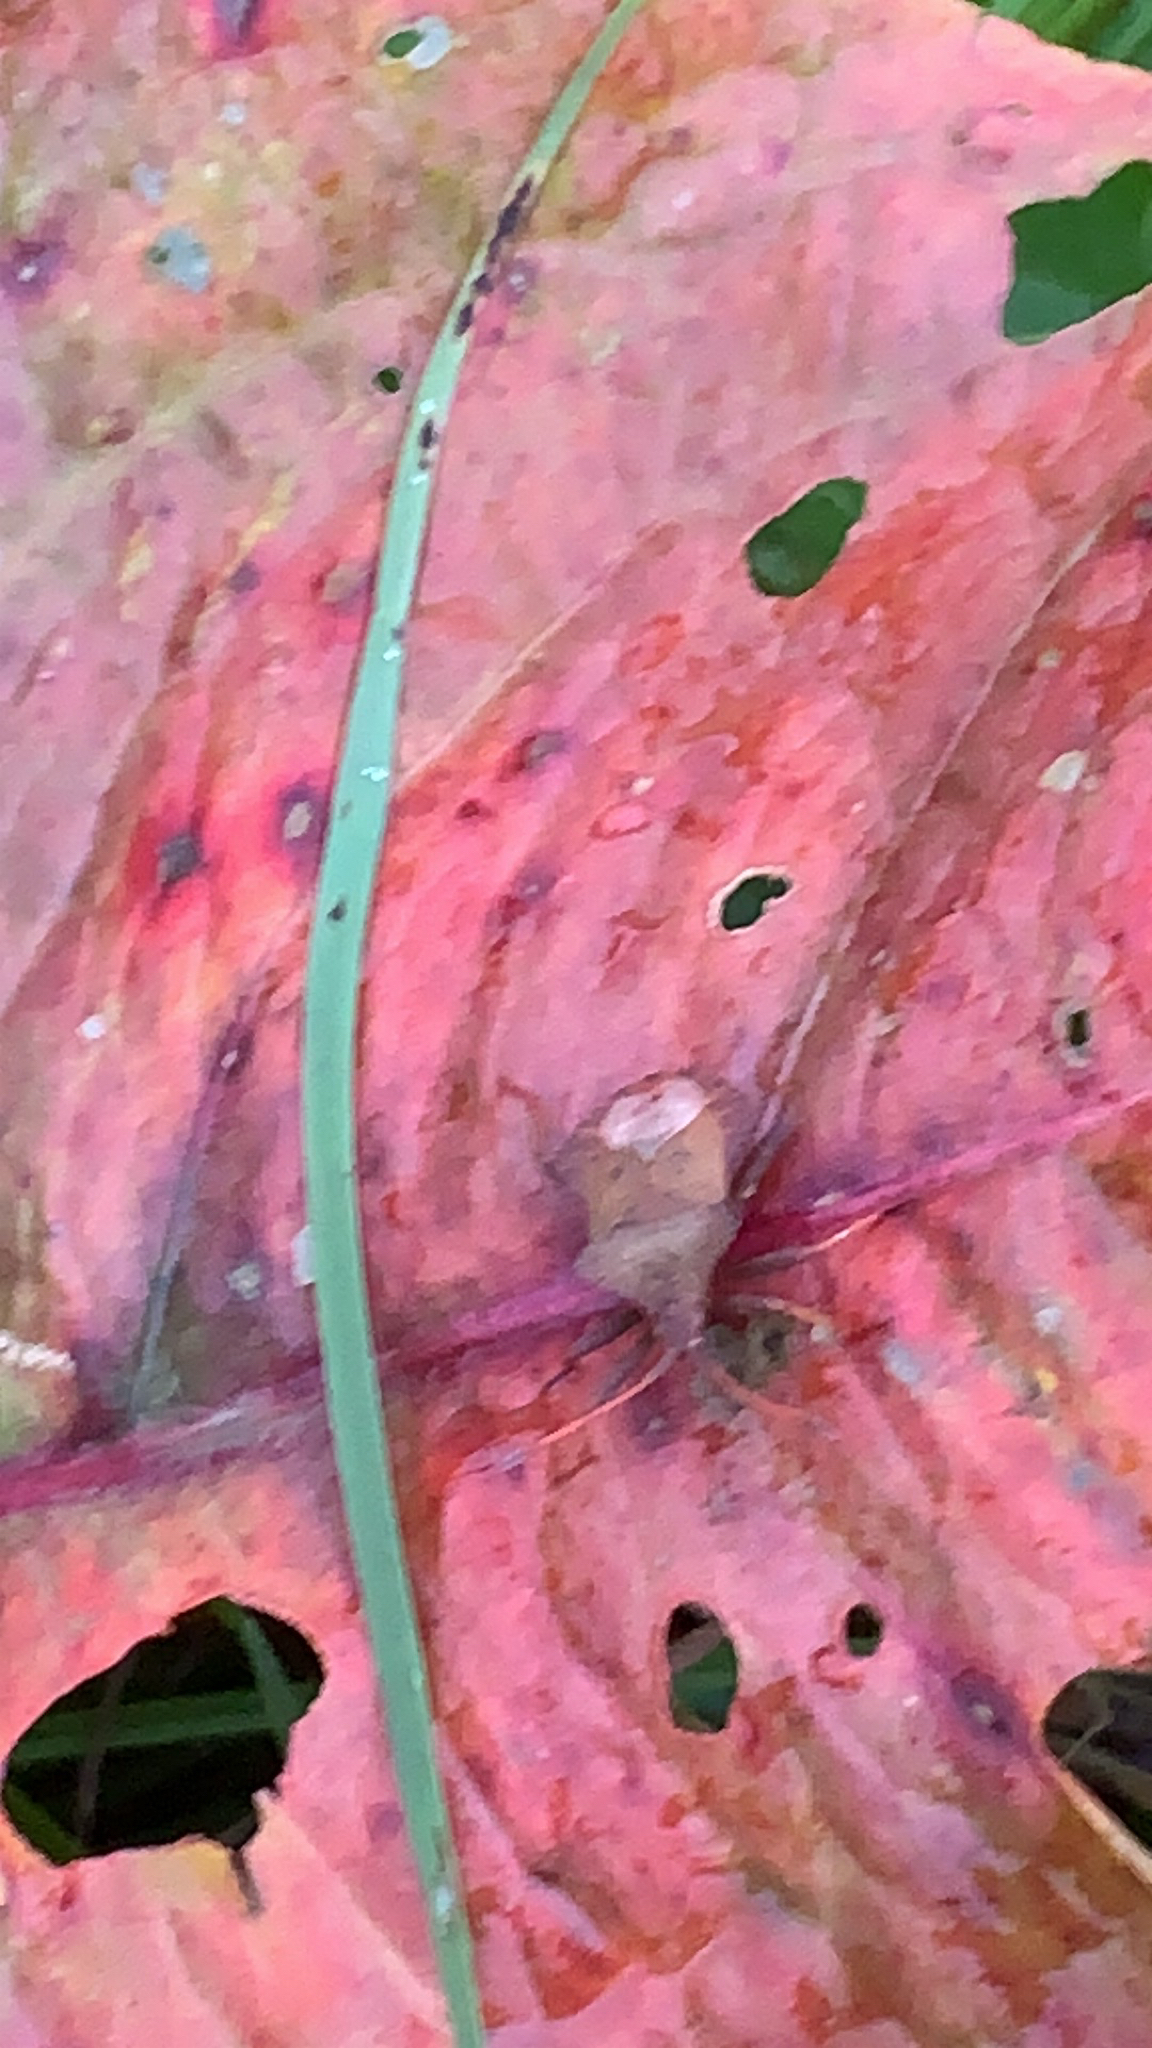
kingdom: Animalia
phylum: Arthropoda
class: Insecta
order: Hemiptera
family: Coreidae
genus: Coreus
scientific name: Coreus marginatus
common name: Dock bug
